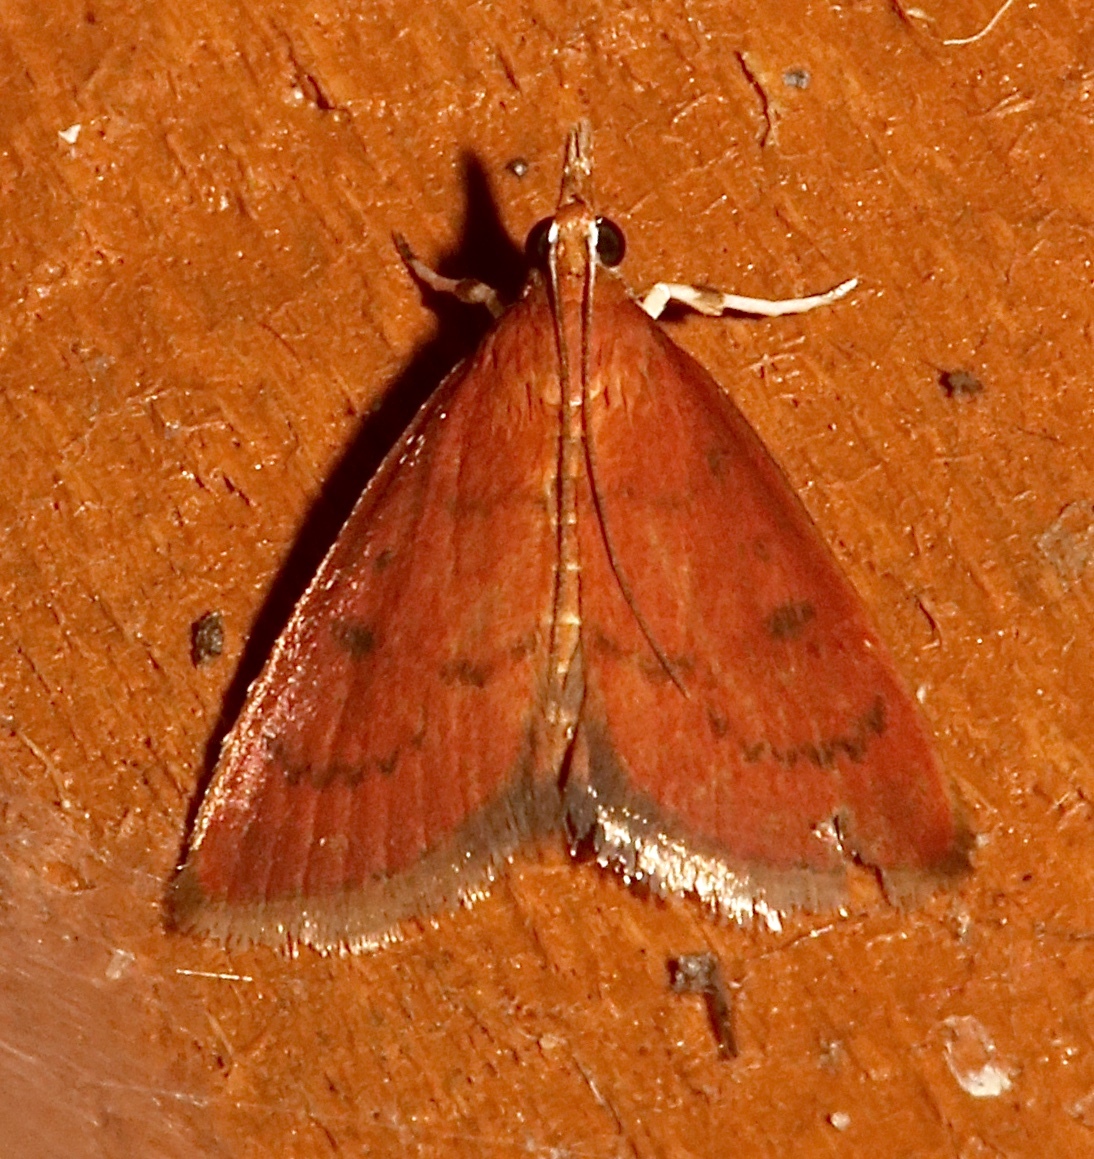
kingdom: Animalia
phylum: Arthropoda
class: Insecta
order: Lepidoptera
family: Crambidae
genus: Fumibotys
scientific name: Fumibotys fumalis
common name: Mint root borer moth
